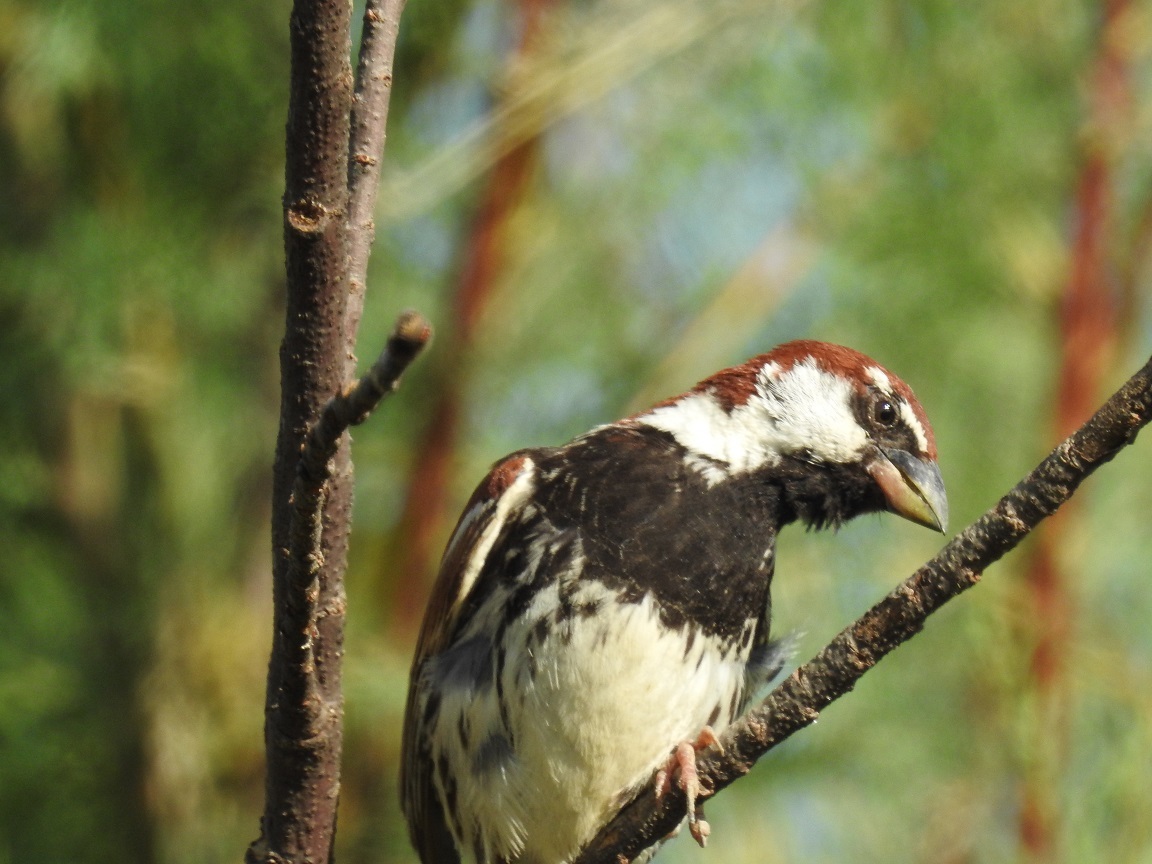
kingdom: Animalia
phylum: Chordata
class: Aves
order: Passeriformes
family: Passeridae
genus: Passer
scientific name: Passer hispaniolensis
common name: Spanish sparrow
